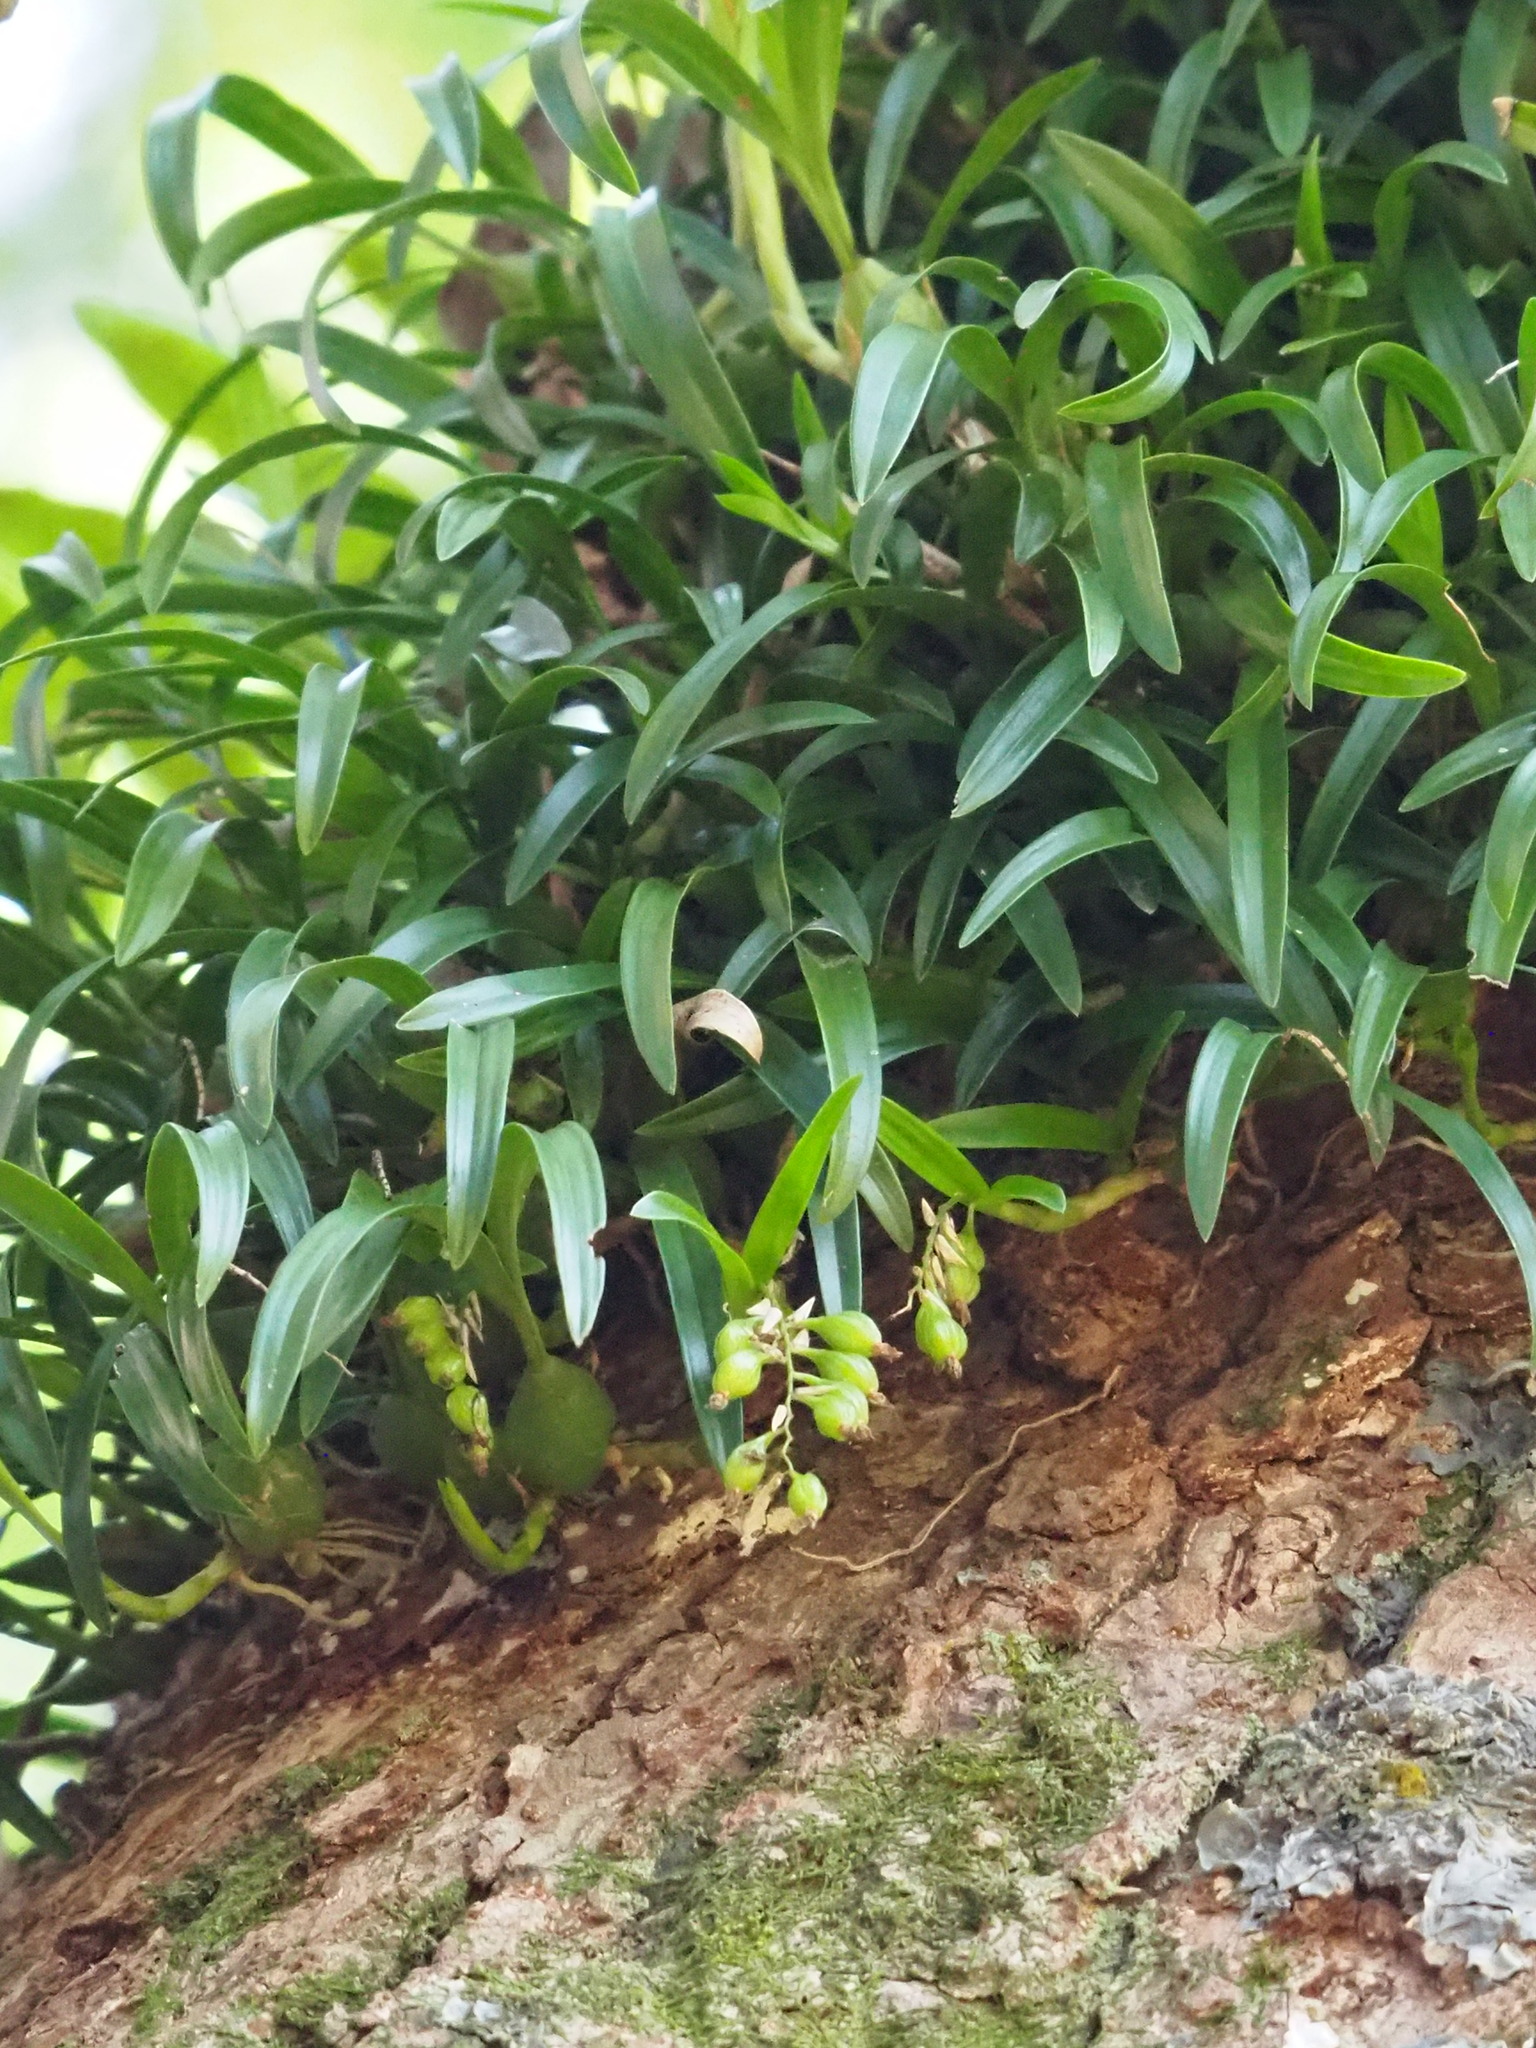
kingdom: Plantae
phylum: Tracheophyta
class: Liliopsida
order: Asparagales
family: Orchidaceae
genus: Coelogyne
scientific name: Coelogyne cantonensis
